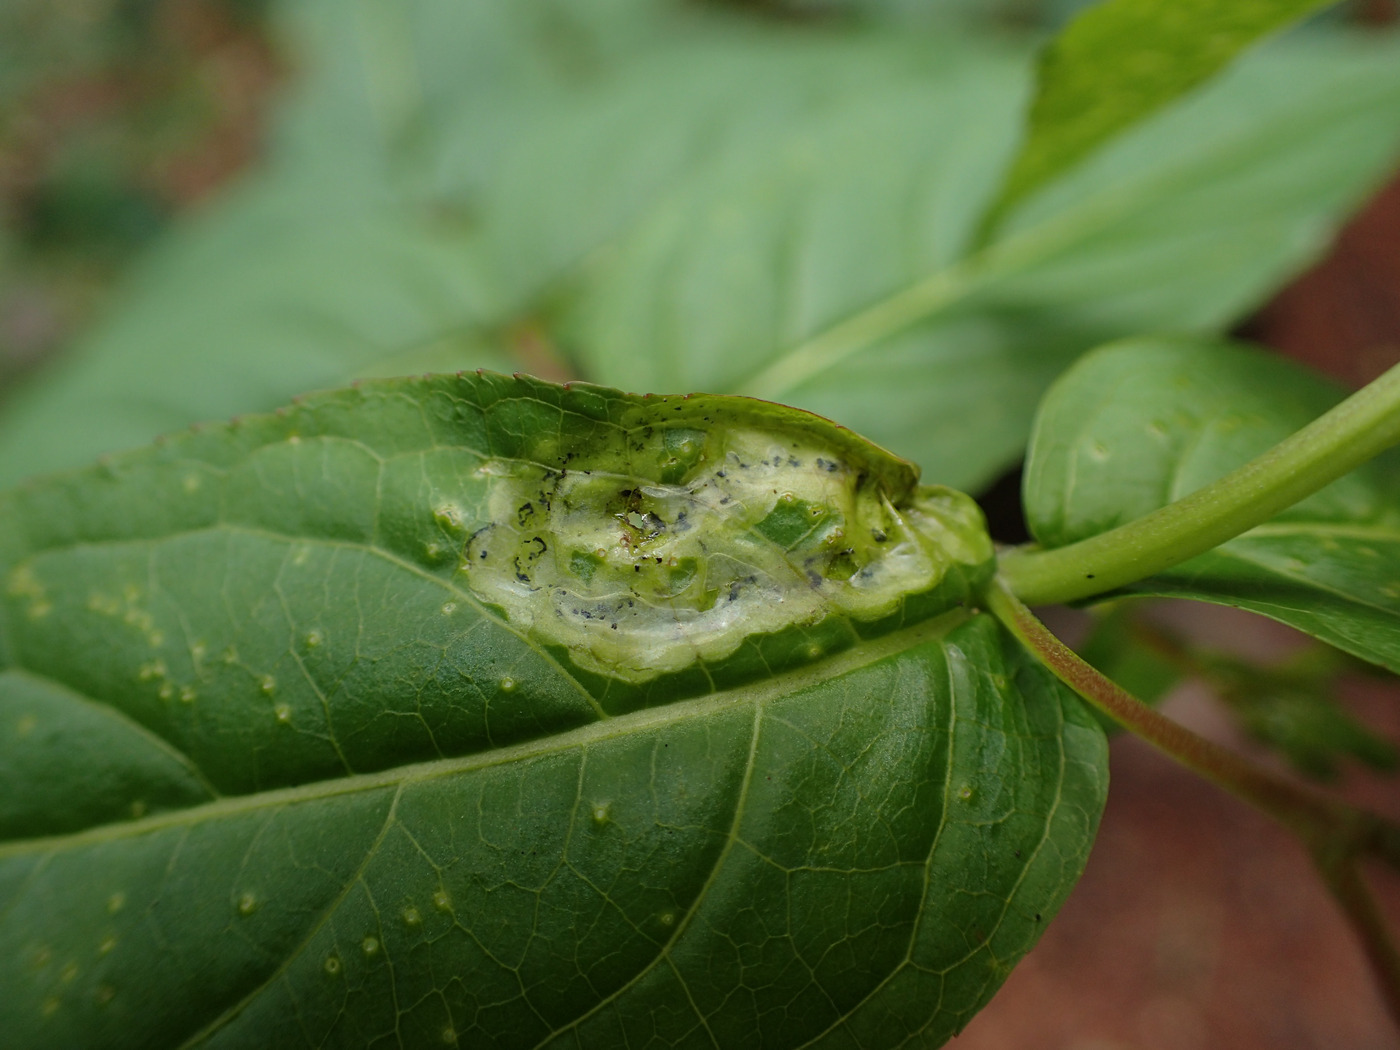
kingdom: Animalia
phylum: Arthropoda
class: Insecta
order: Diptera
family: Agromyzidae
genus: Aulagromyza
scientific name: Aulagromyza orbitalis
